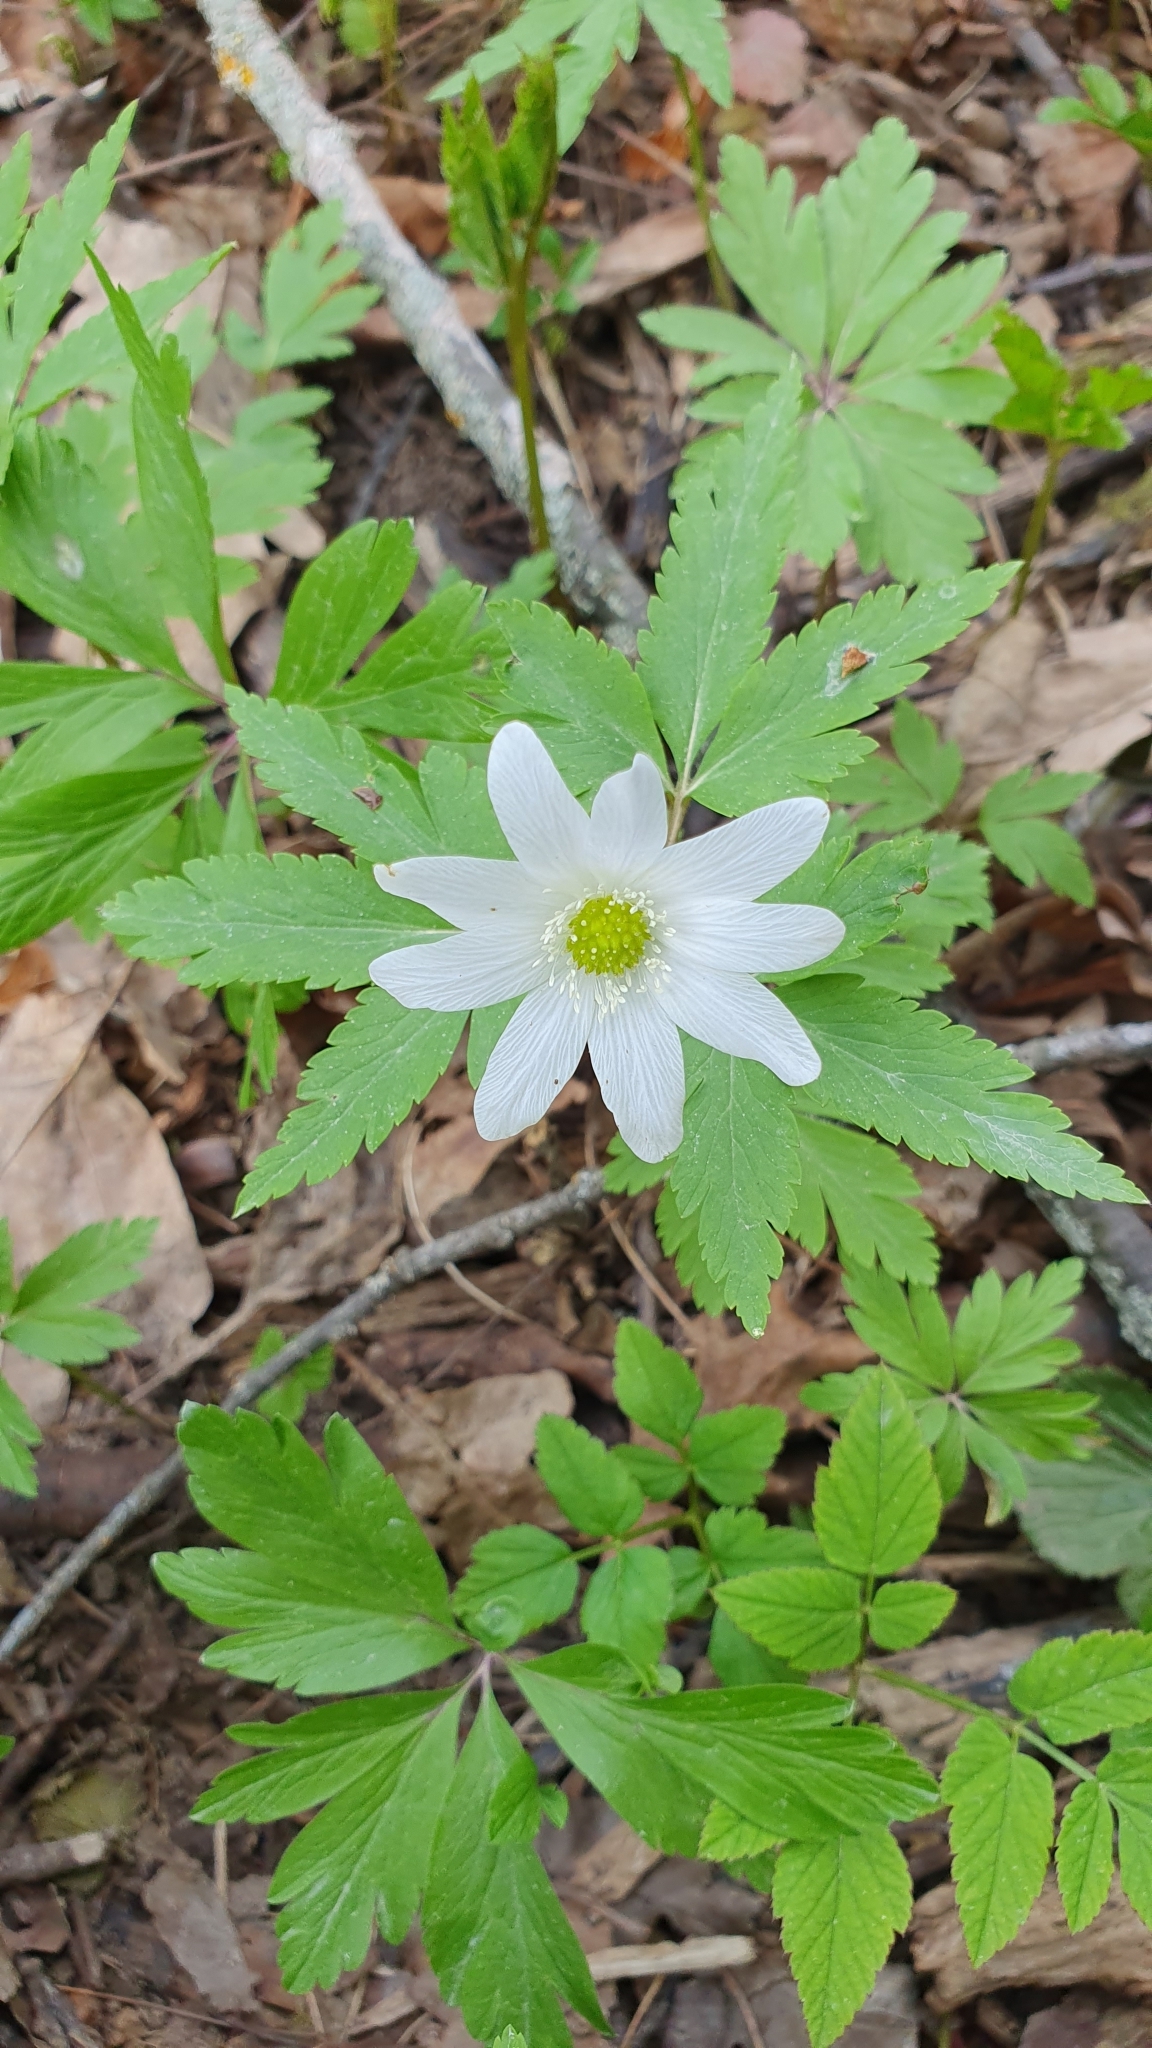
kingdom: Plantae
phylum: Tracheophyta
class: Magnoliopsida
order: Ranunculales
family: Ranunculaceae
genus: Anemone
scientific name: Anemone altaica
